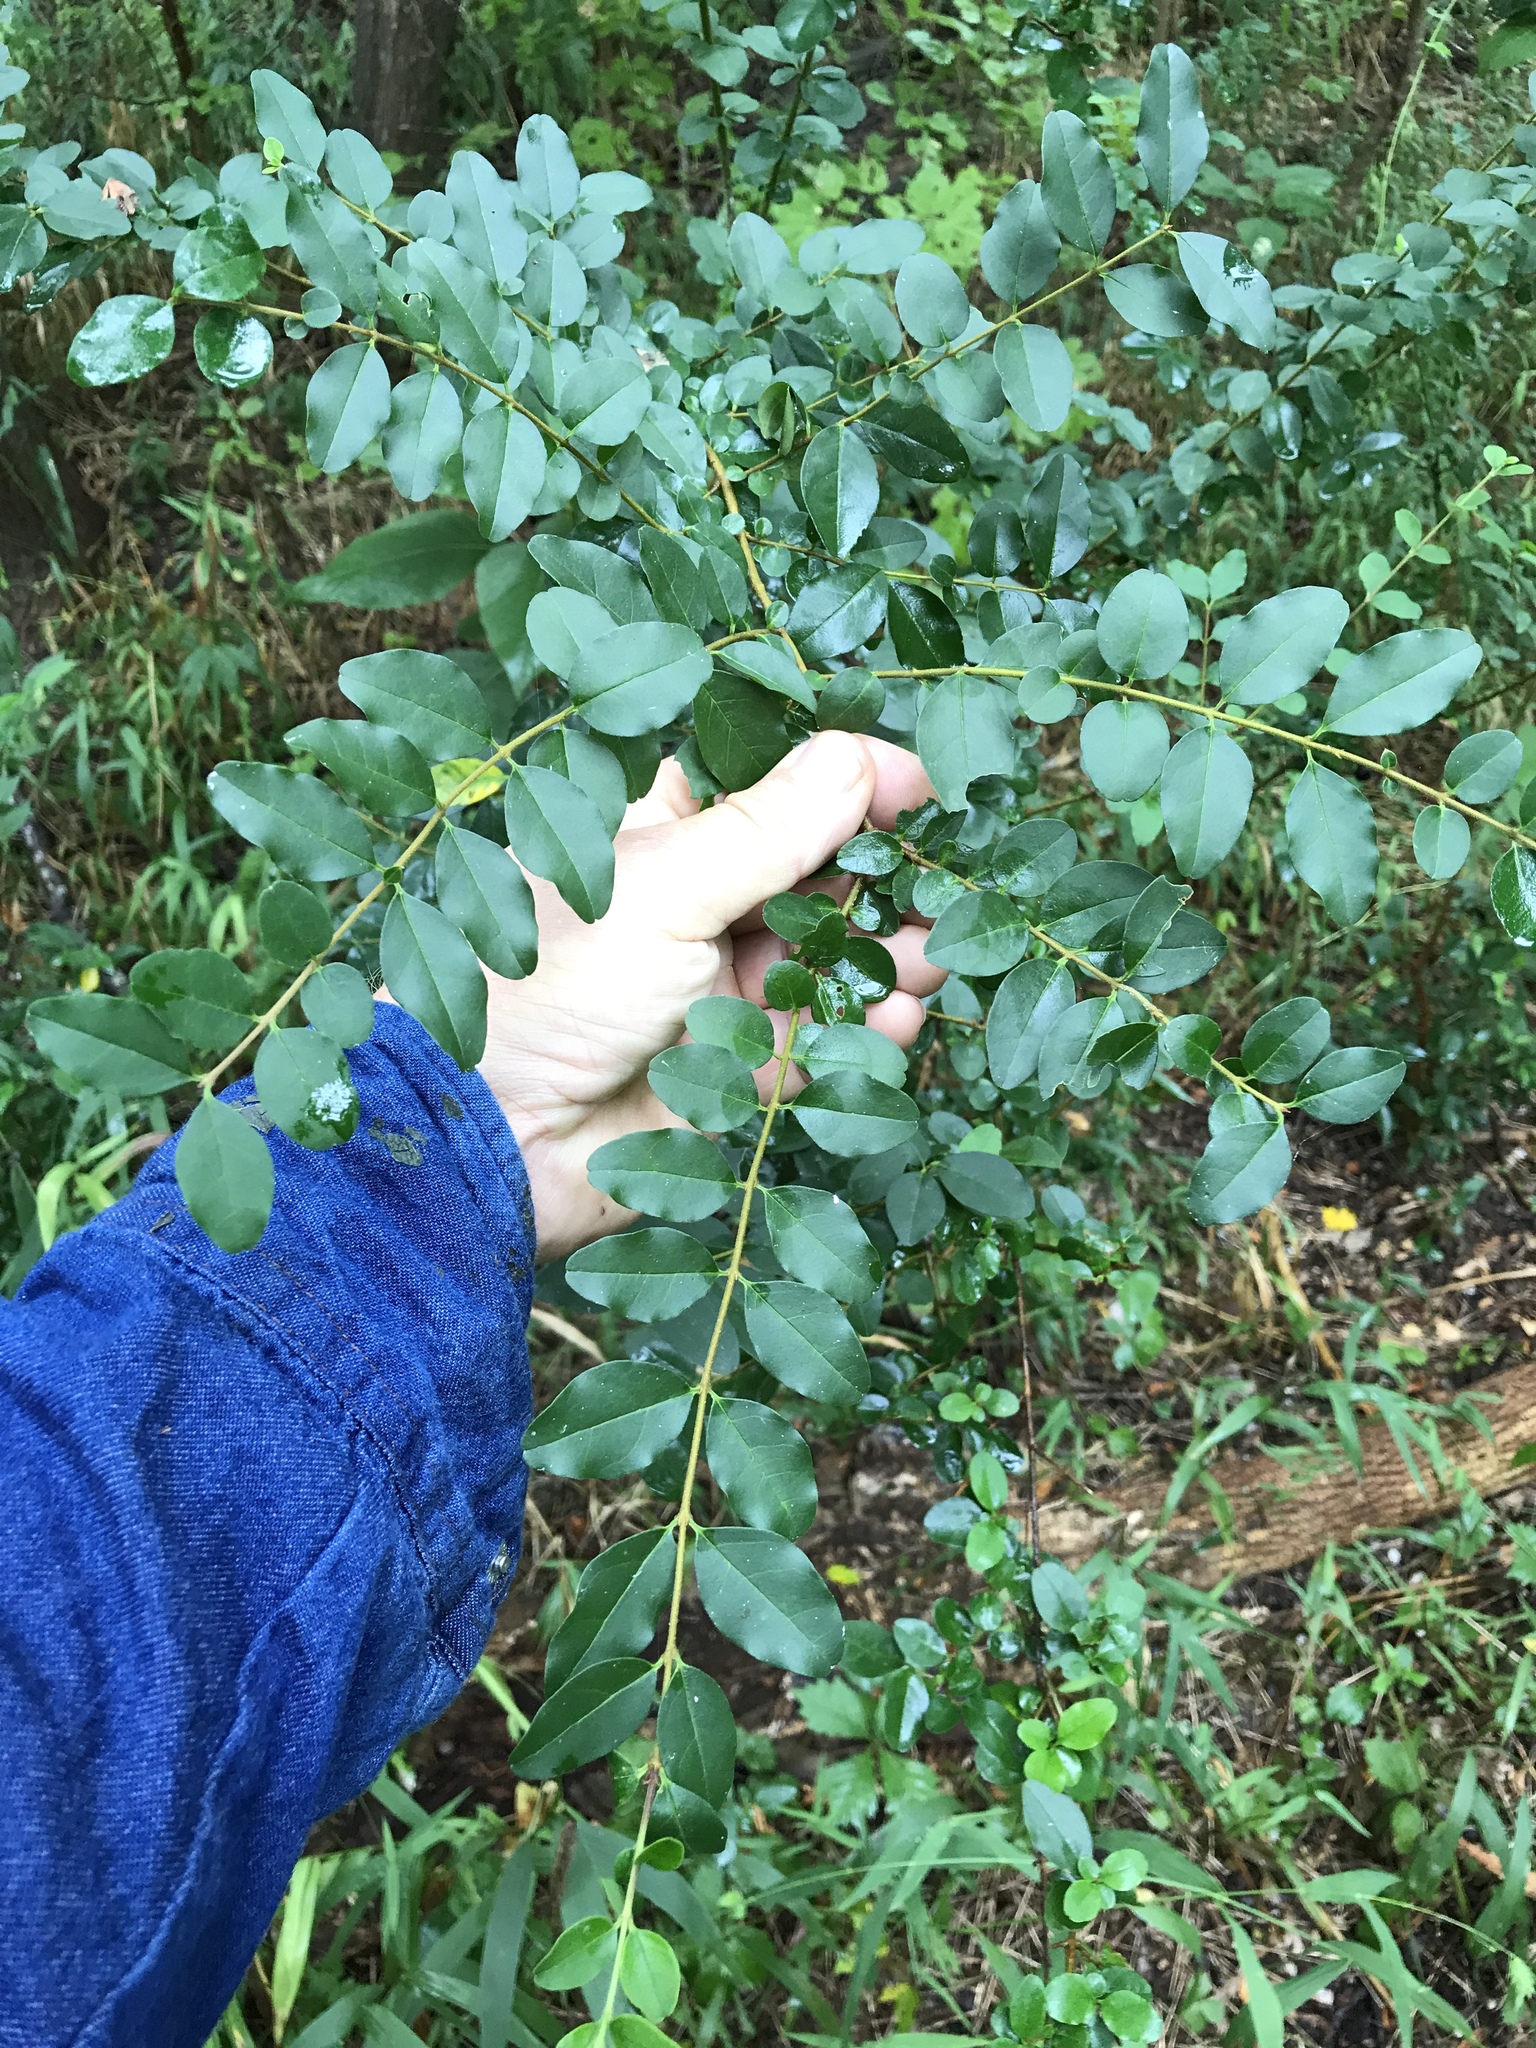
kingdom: Plantae
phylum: Tracheophyta
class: Magnoliopsida
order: Lamiales
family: Oleaceae
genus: Ligustrum
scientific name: Ligustrum sinense
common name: Chinese privet
